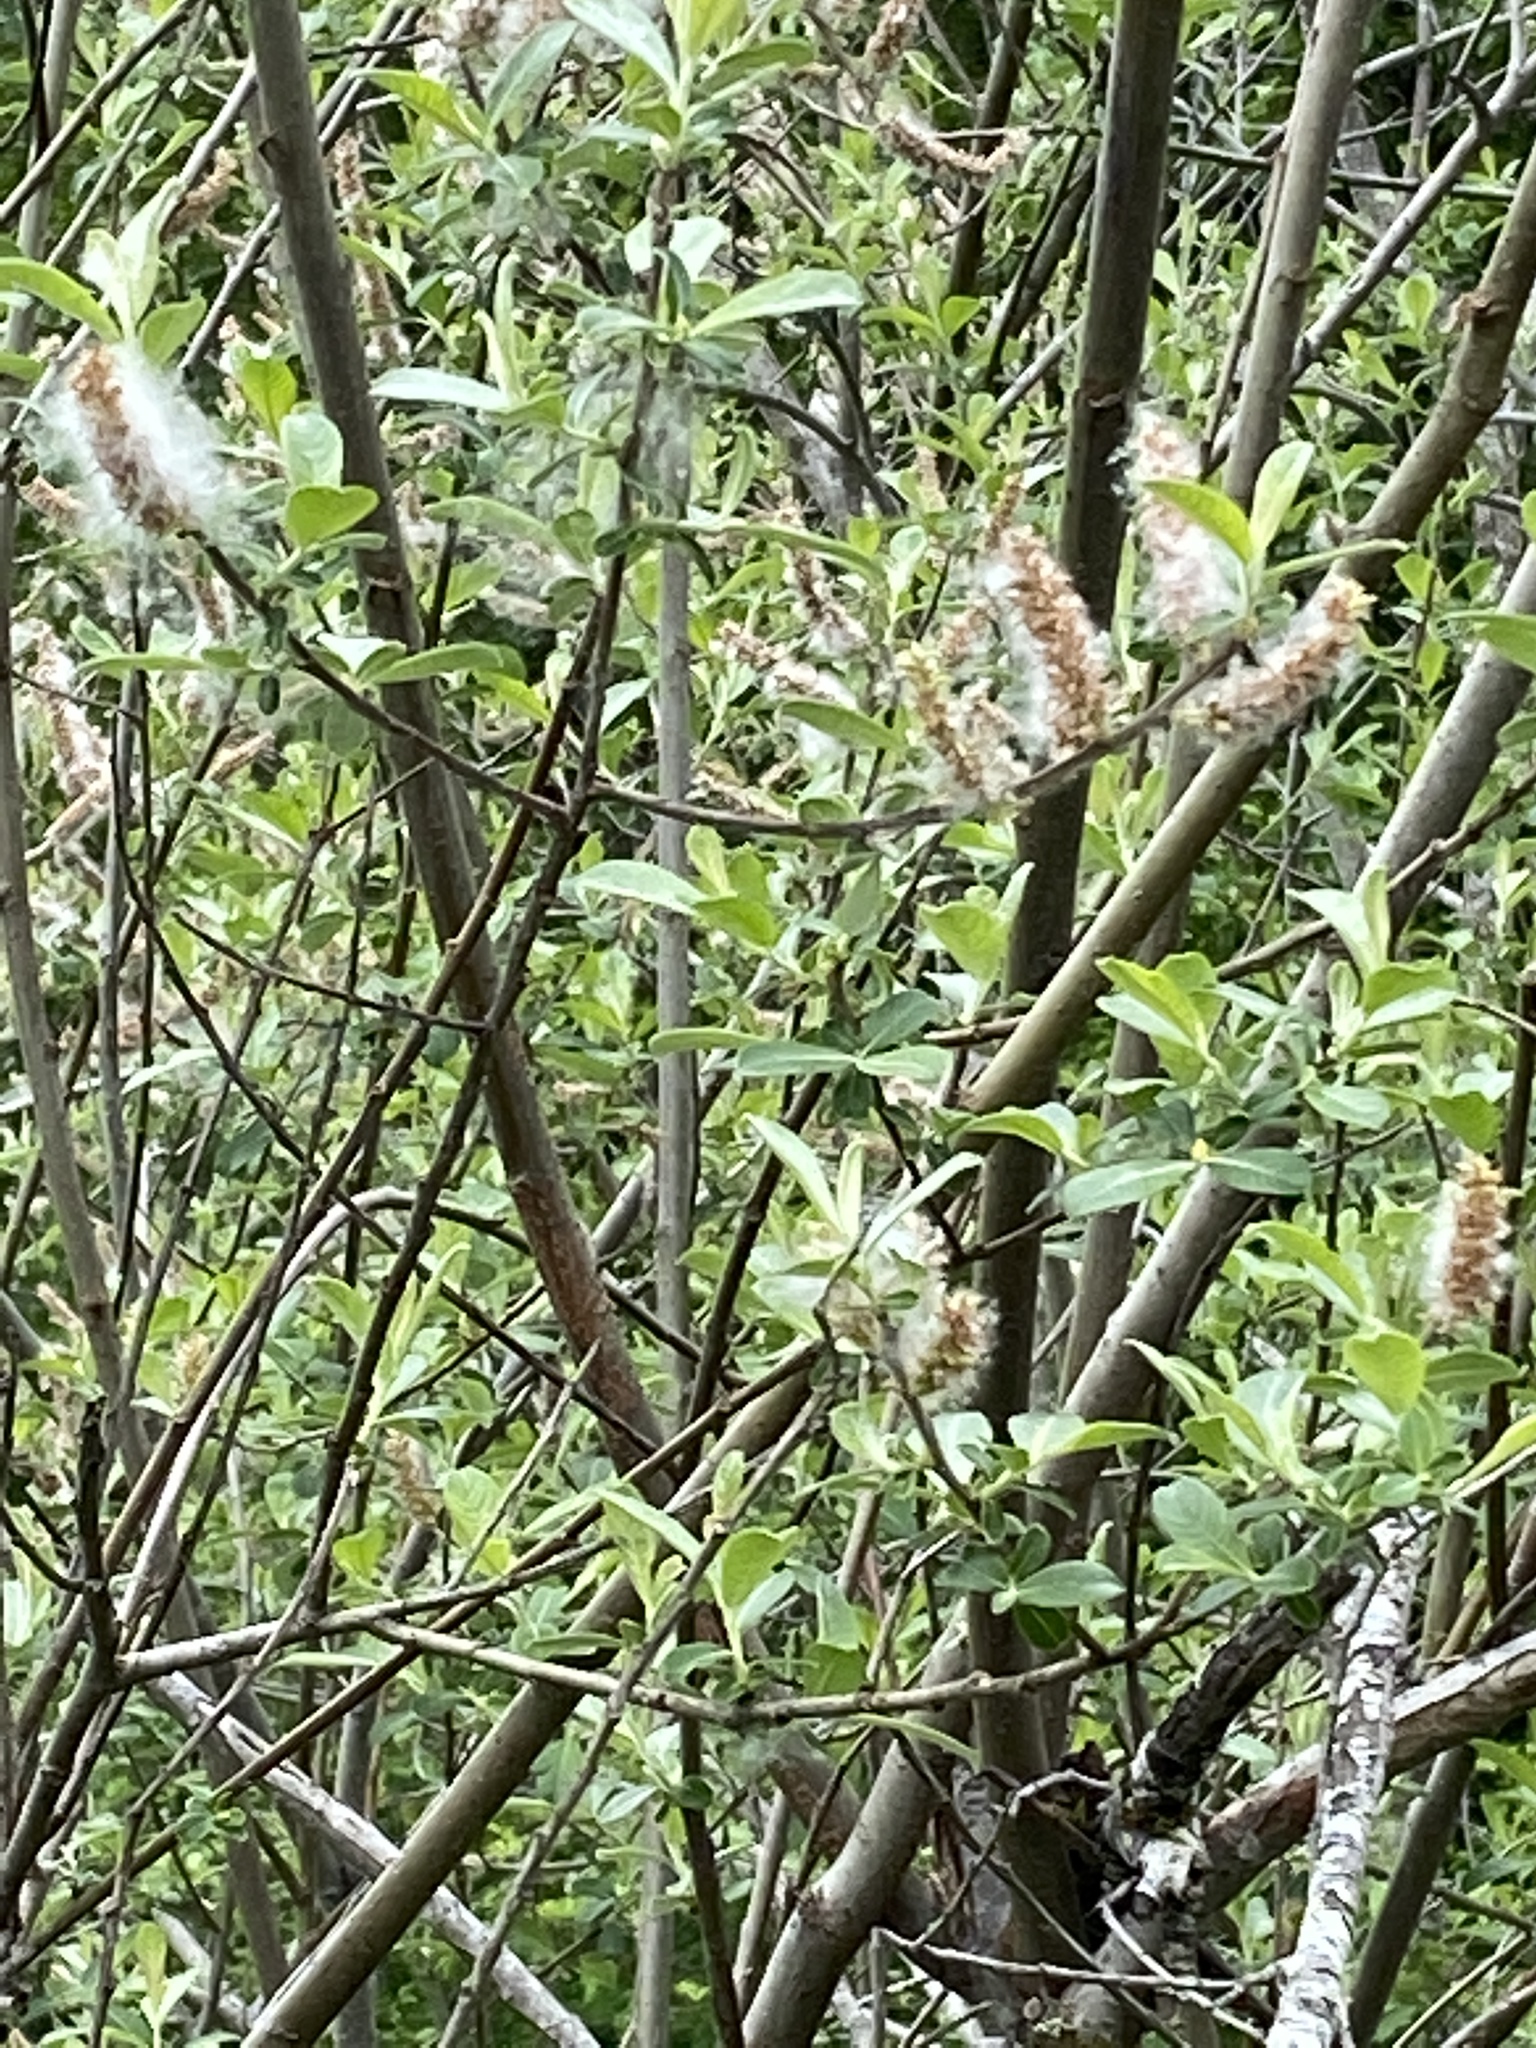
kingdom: Plantae
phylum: Tracheophyta
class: Magnoliopsida
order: Malpighiales
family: Salicaceae
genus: Salix
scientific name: Salix sitchensis
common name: Sitka willow
